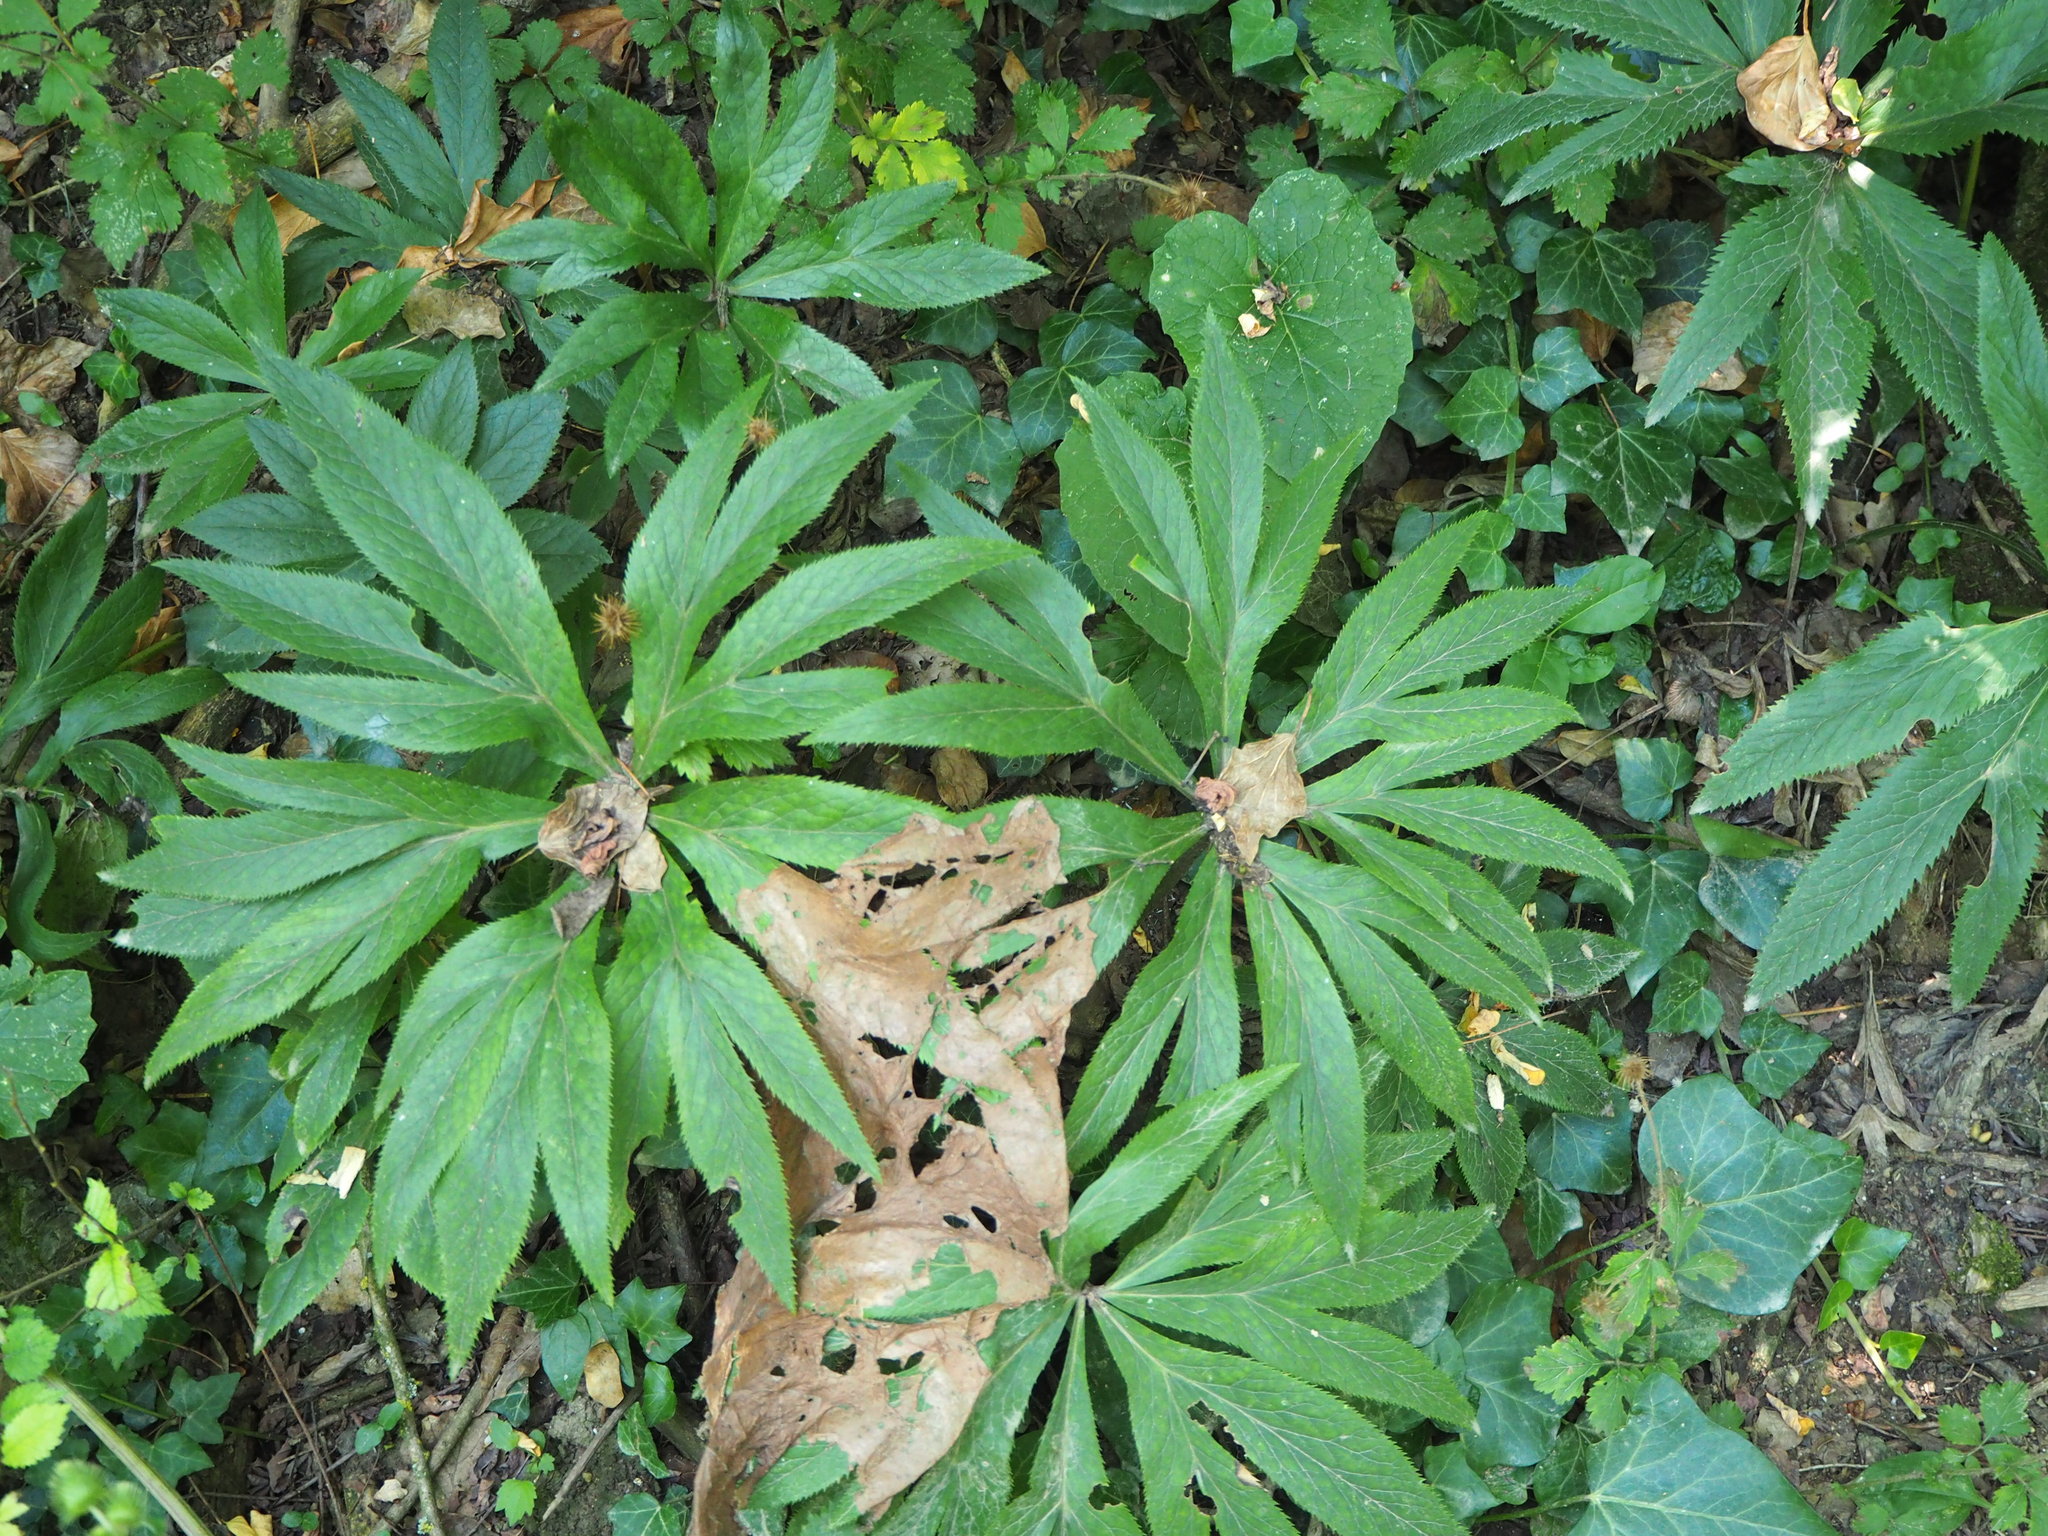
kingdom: Plantae
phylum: Tracheophyta
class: Magnoliopsida
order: Ranunculales
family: Ranunculaceae
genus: Helleborus
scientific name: Helleborus viridis
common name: Green hellebore
